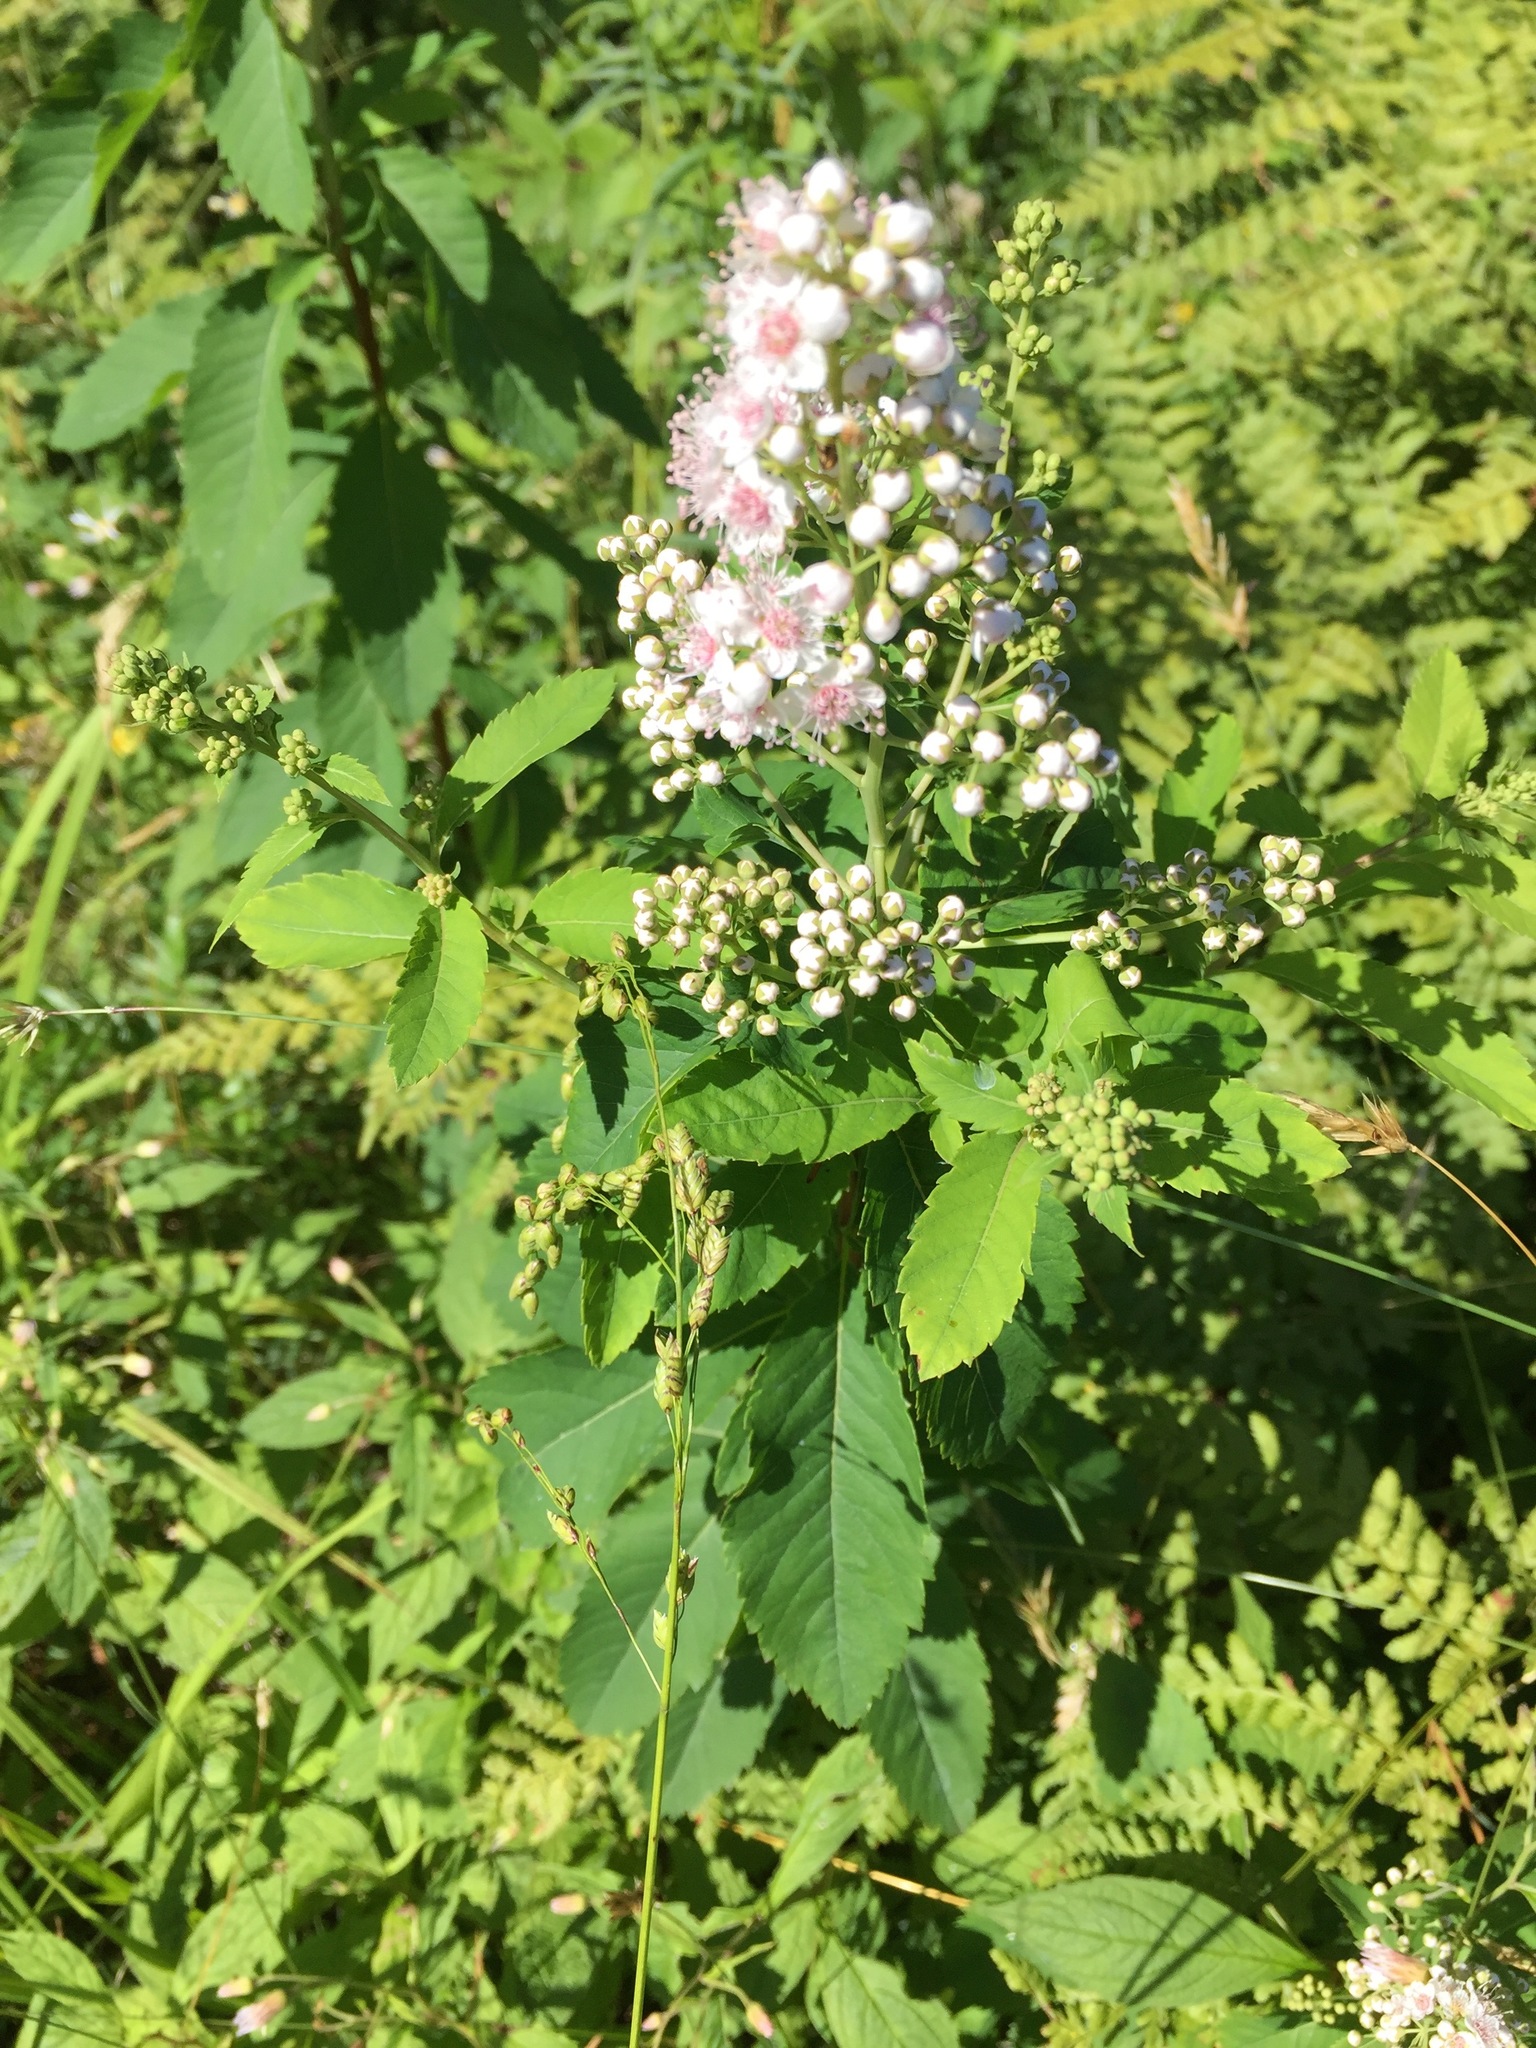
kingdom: Plantae
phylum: Tracheophyta
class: Magnoliopsida
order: Rosales
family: Rosaceae
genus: Spiraea
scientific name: Spiraea alba
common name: Pale bridewort
